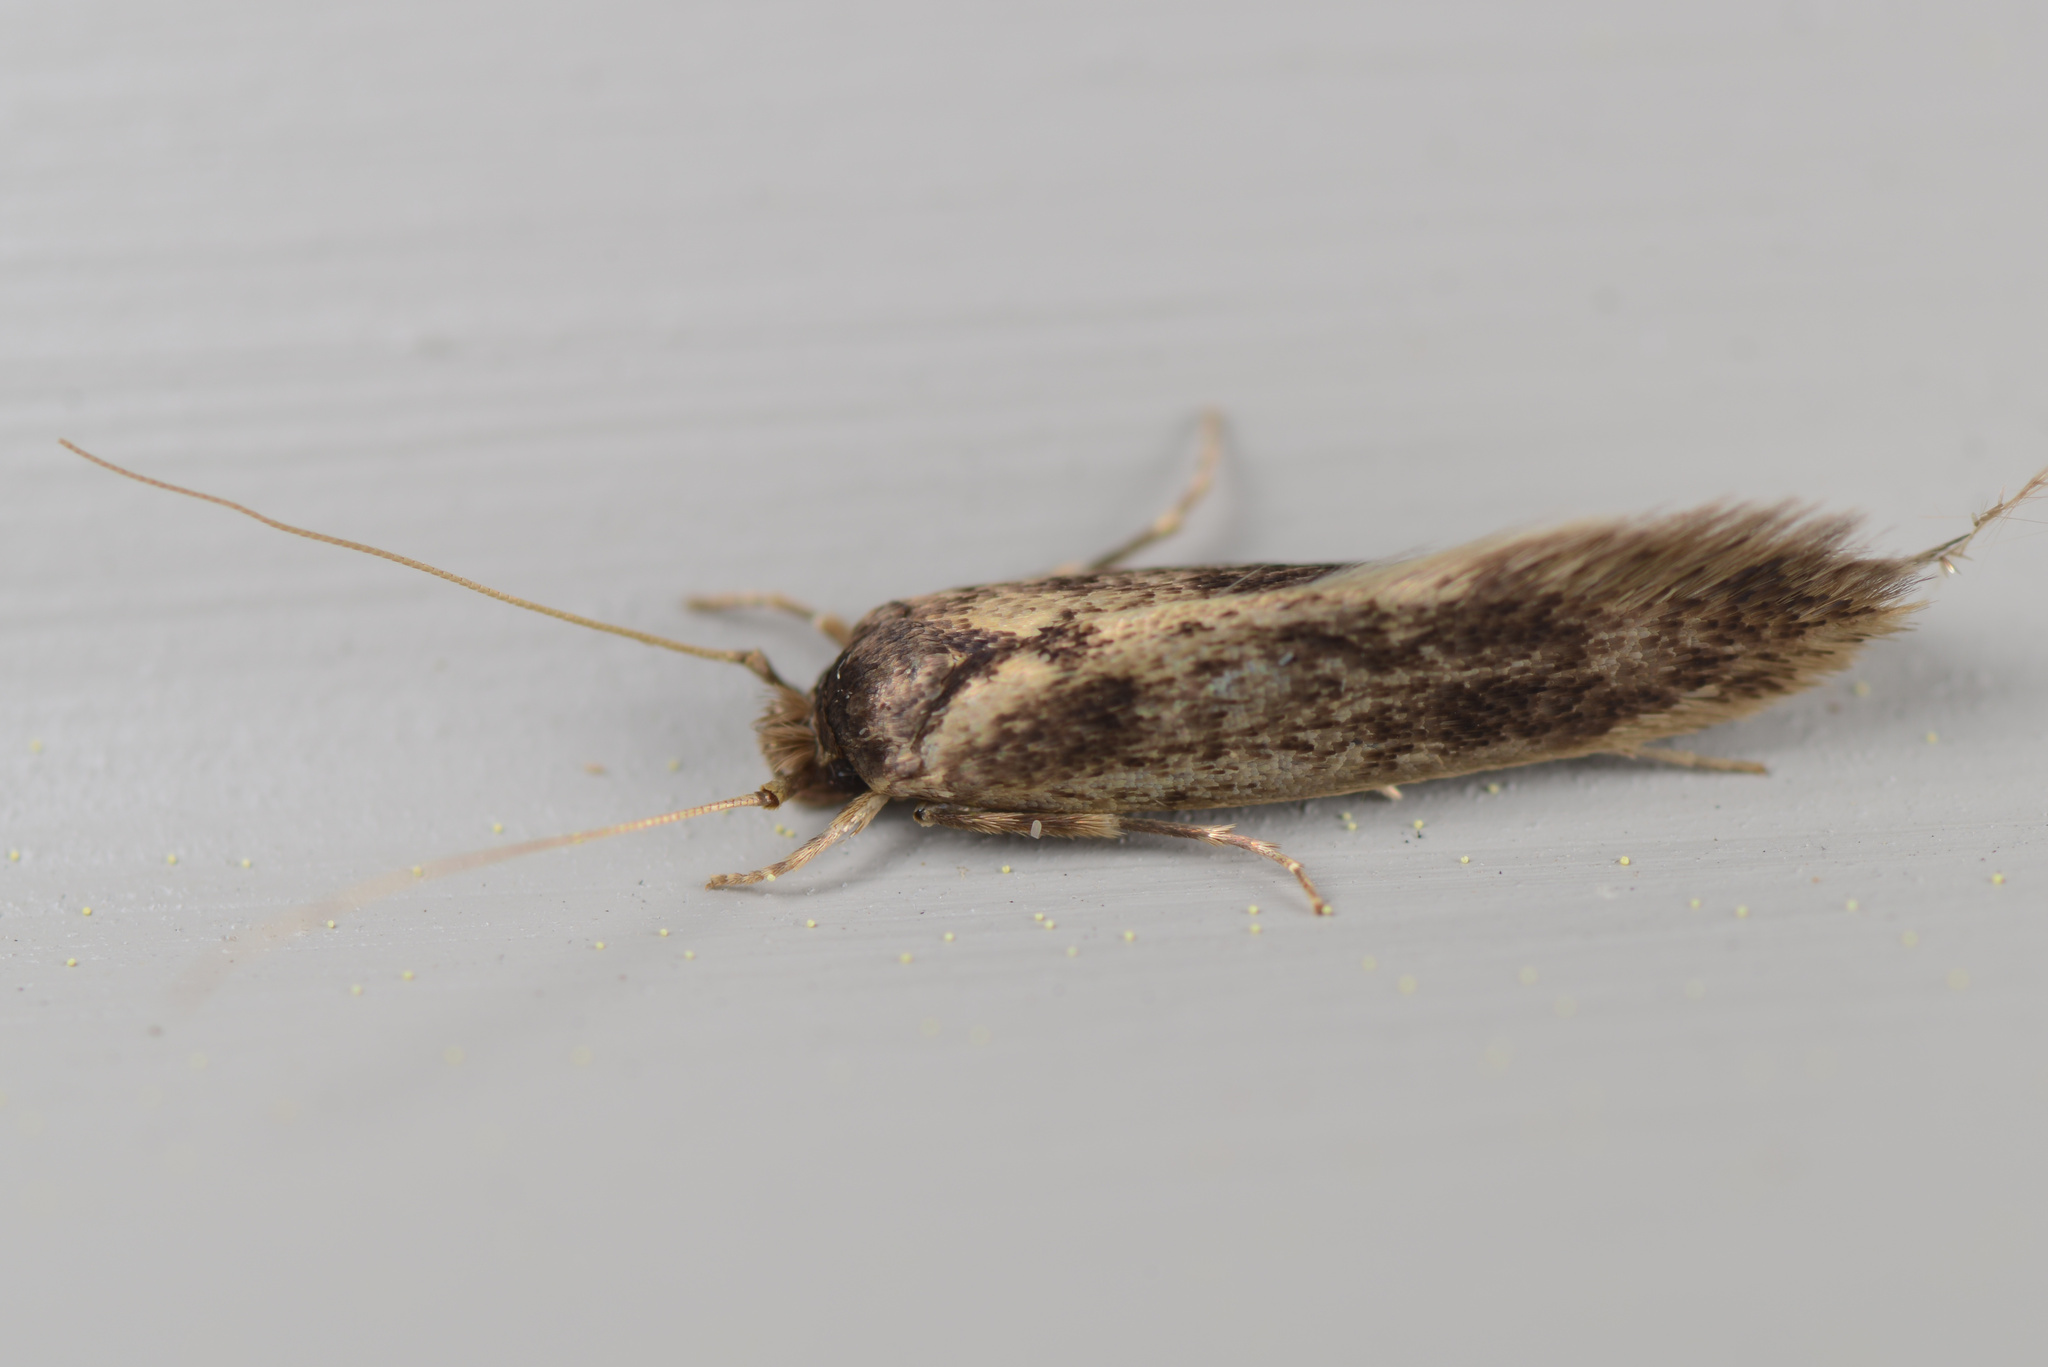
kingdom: Animalia
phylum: Arthropoda
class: Insecta
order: Lepidoptera
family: Tineidae
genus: Opogona
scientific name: Opogona omoscopa
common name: Moth
